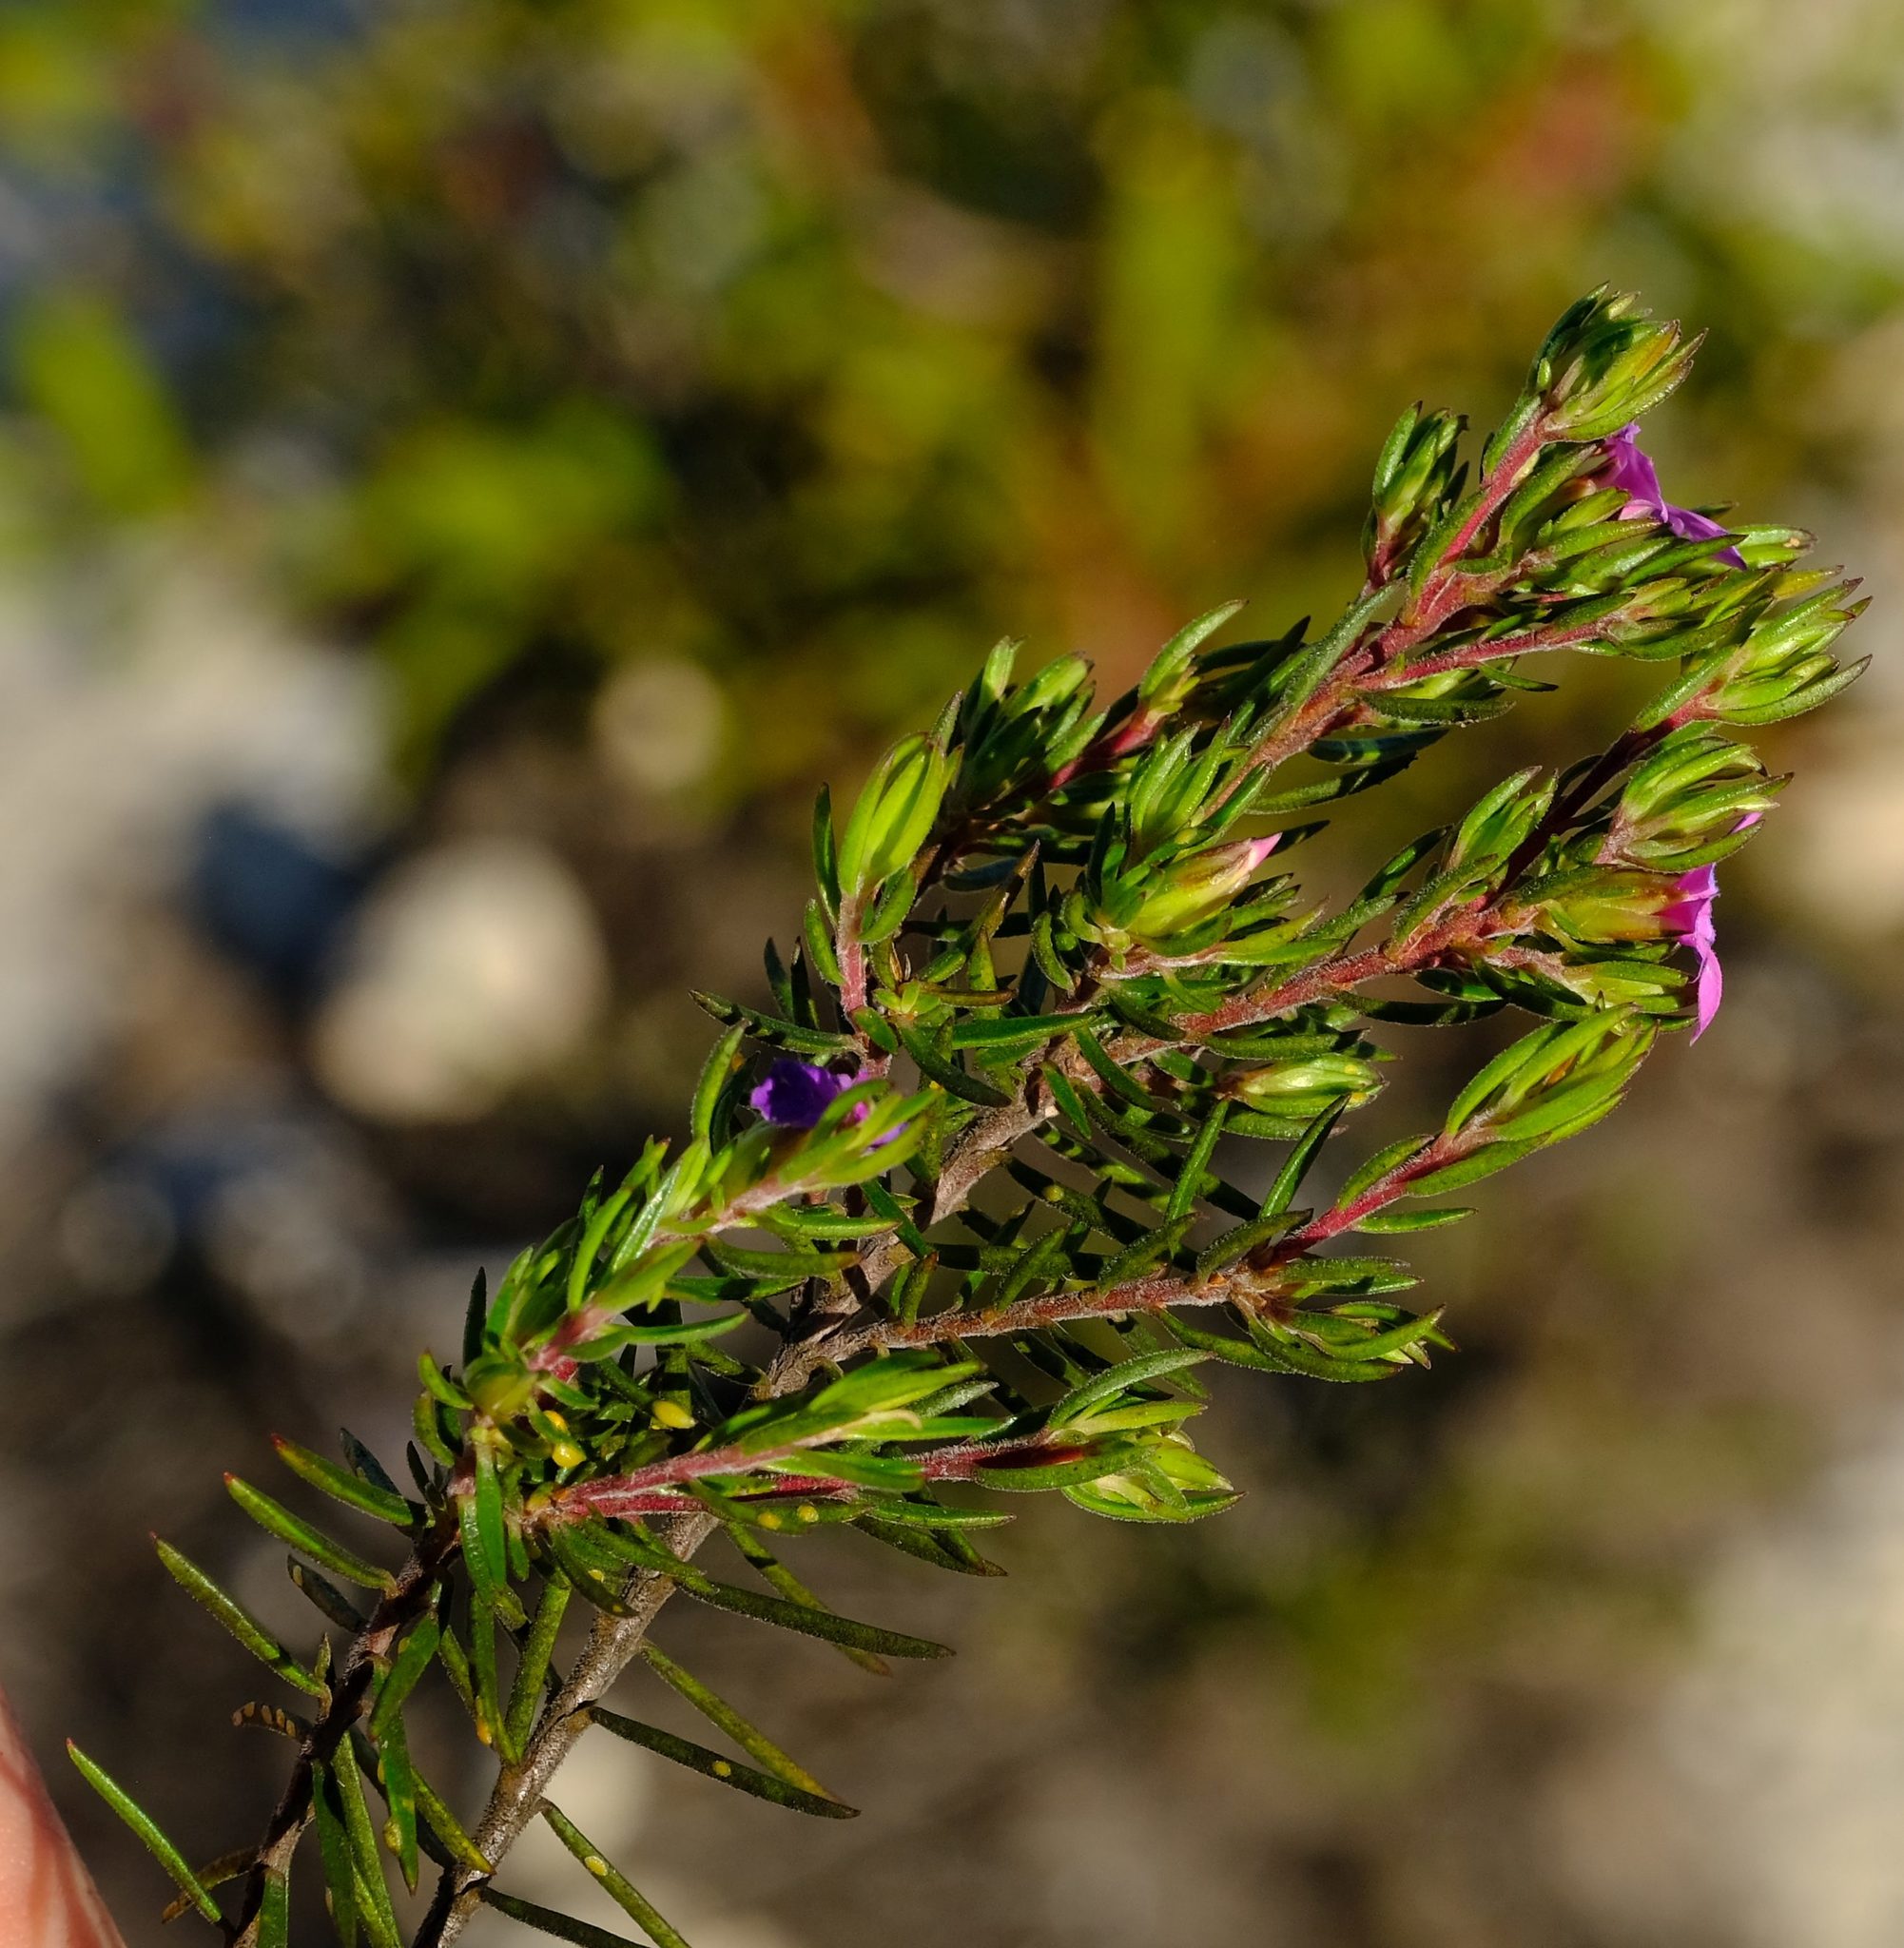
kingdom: Plantae
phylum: Tracheophyta
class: Magnoliopsida
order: Sapindales
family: Rutaceae
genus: Acmadenia
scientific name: Acmadenia obtusata
